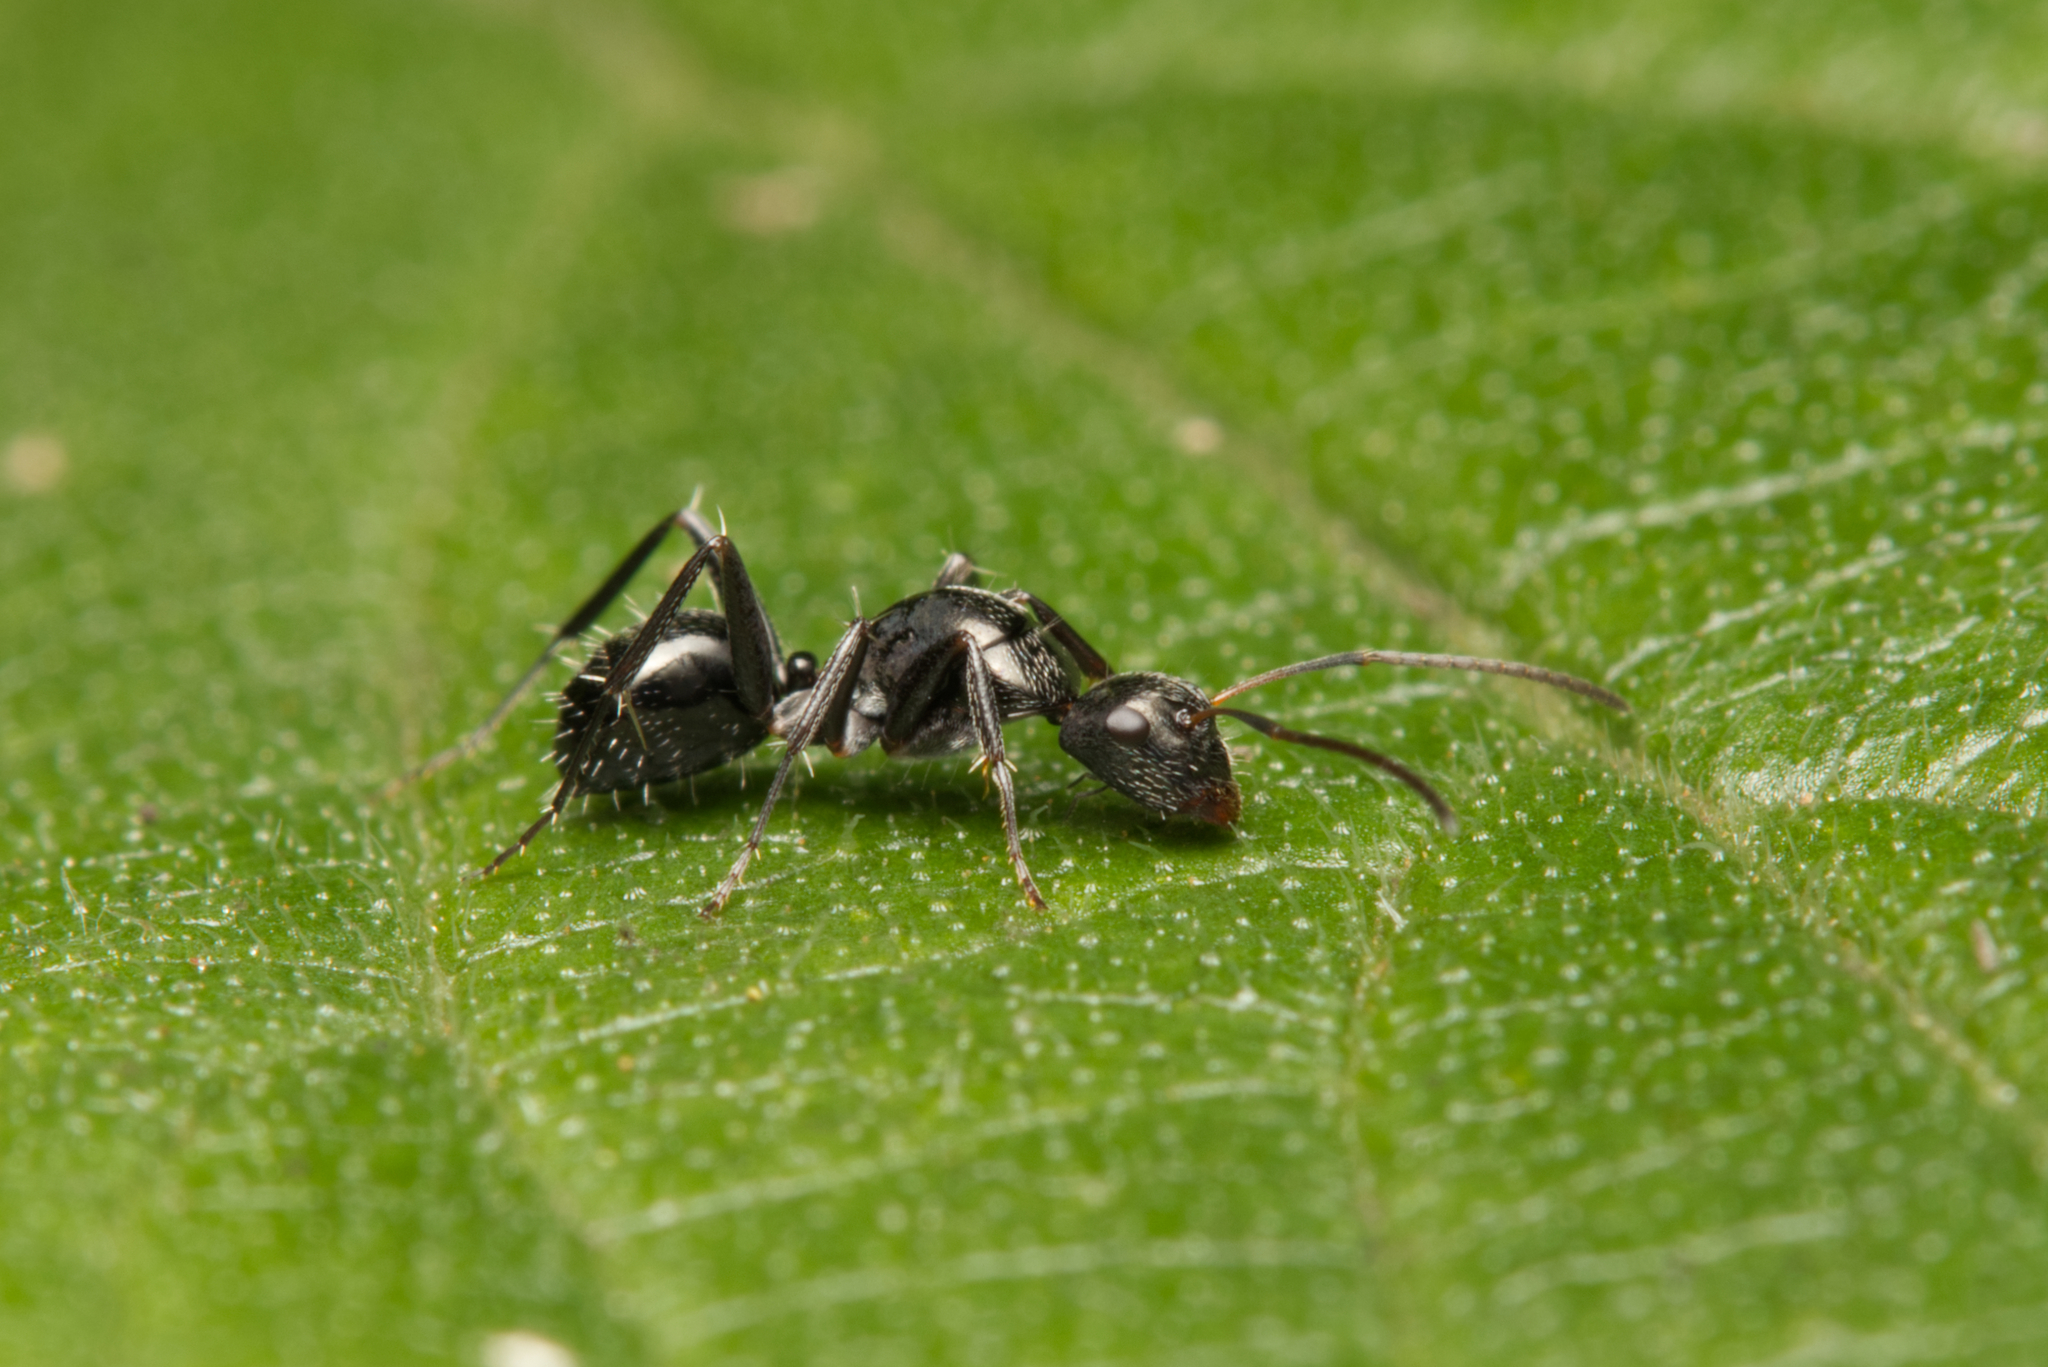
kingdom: Animalia
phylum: Arthropoda
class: Insecta
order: Hymenoptera
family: Formicidae
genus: Camponotus
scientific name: Camponotus cameratus
